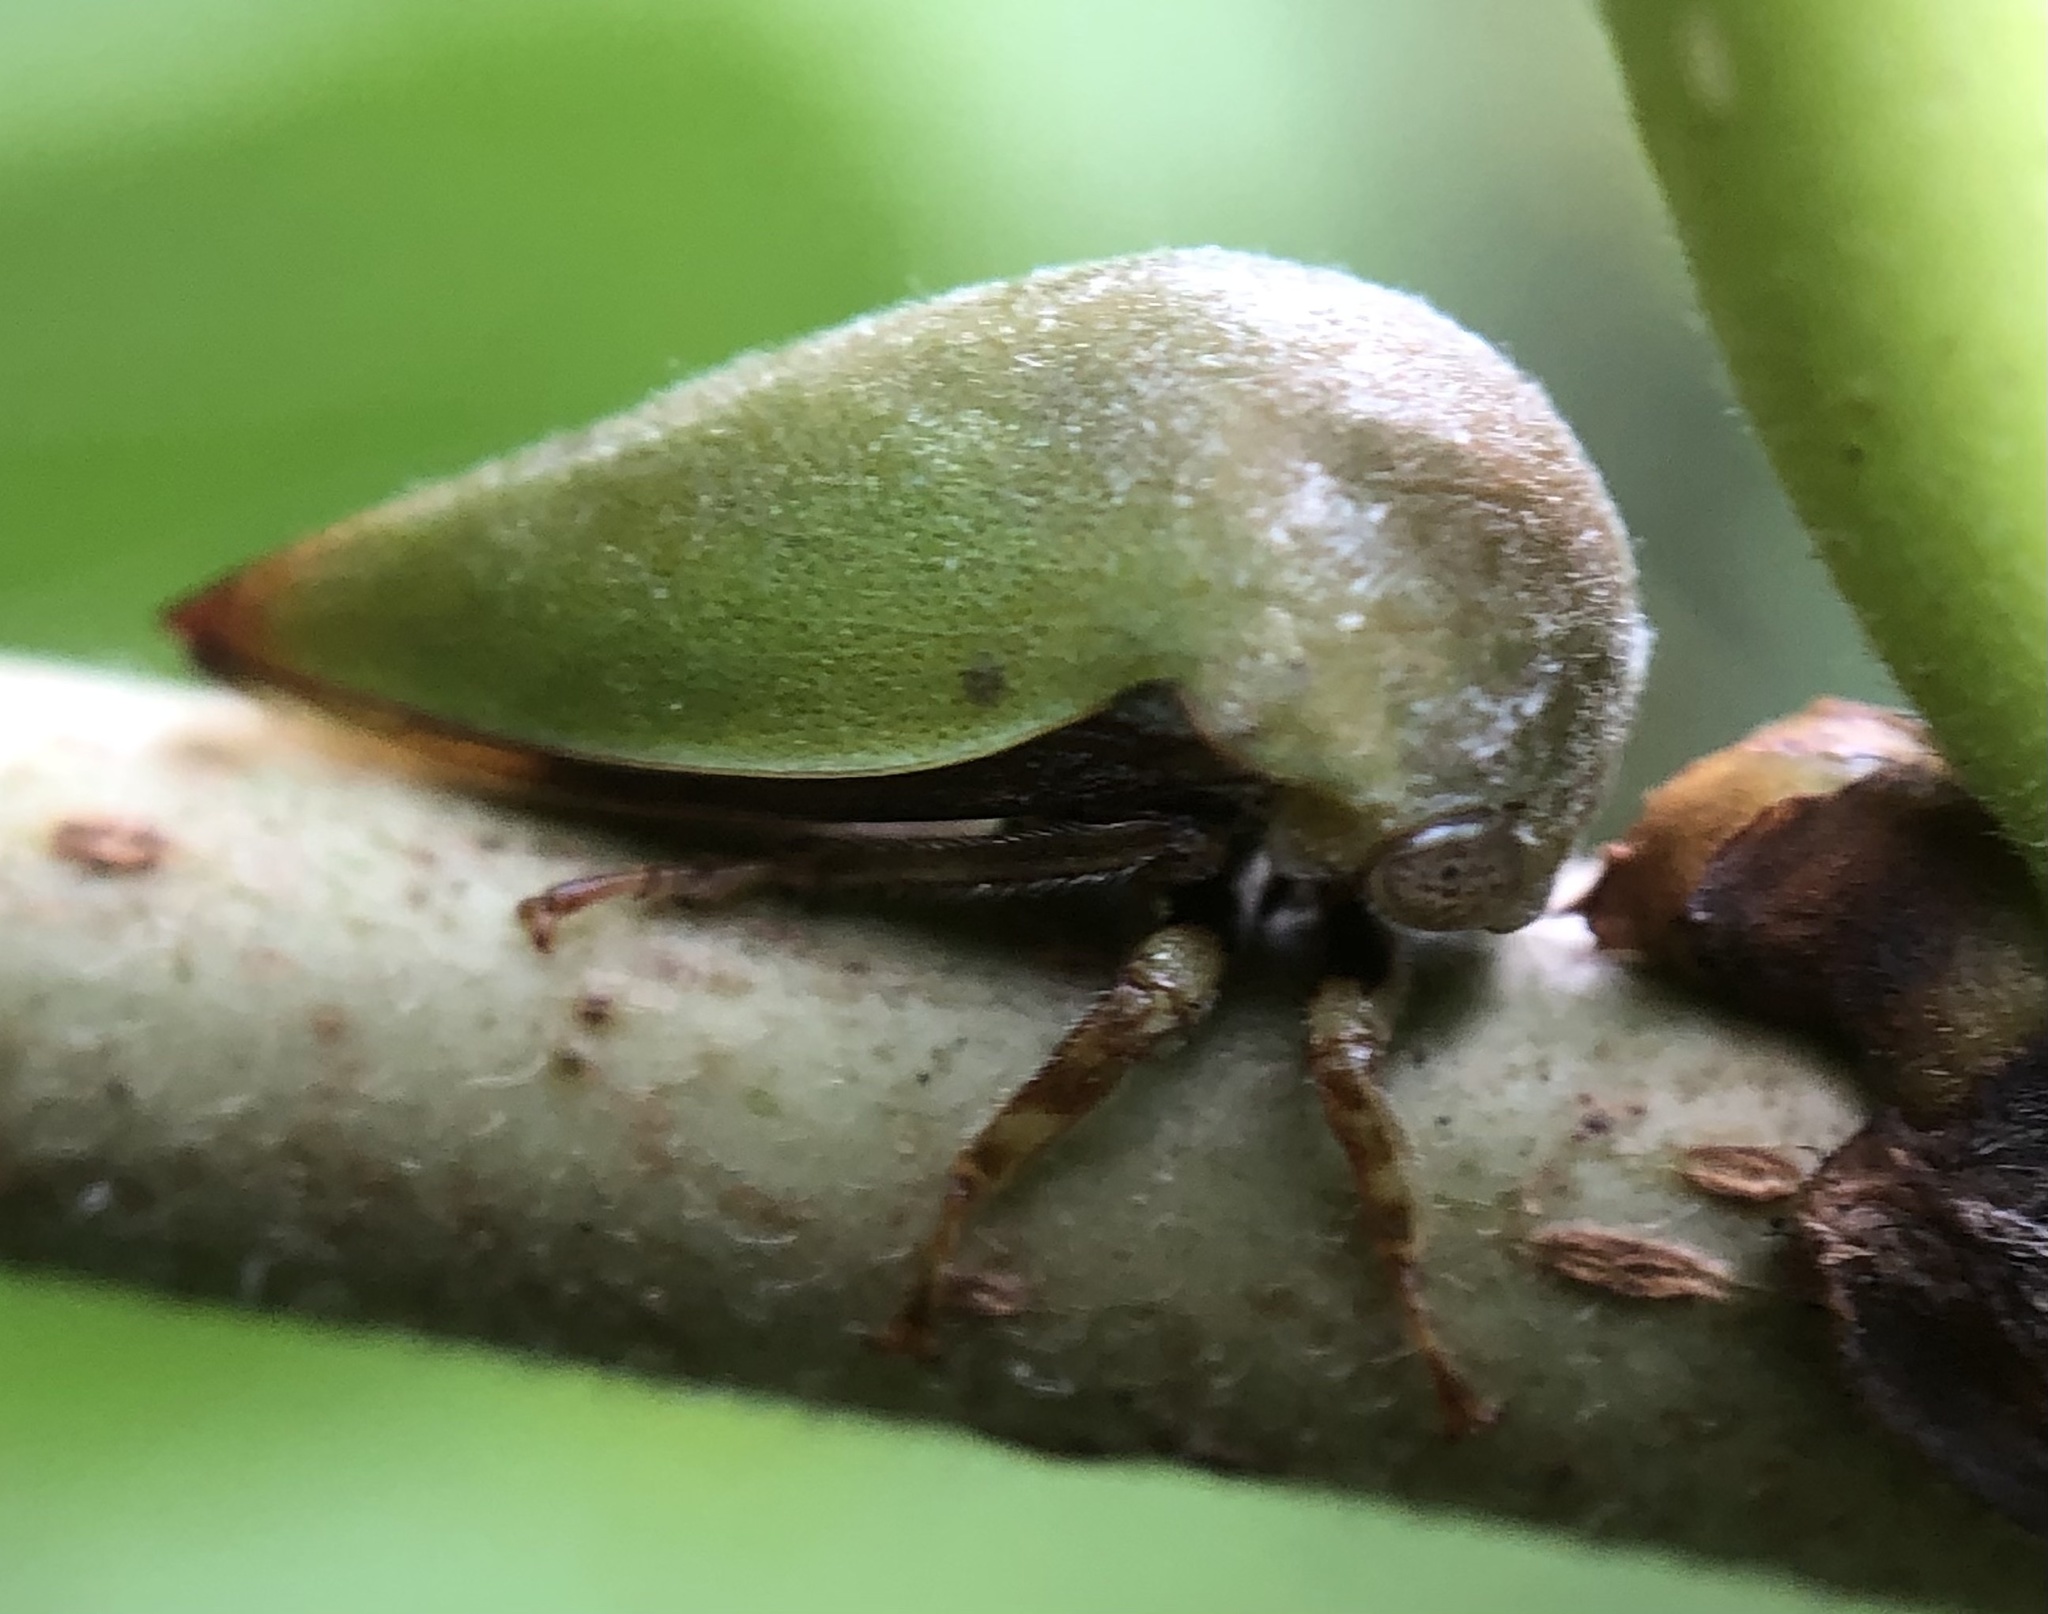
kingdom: Animalia
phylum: Arthropoda
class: Insecta
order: Hemiptera
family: Membracidae
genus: Hebetica
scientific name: Hebetica
